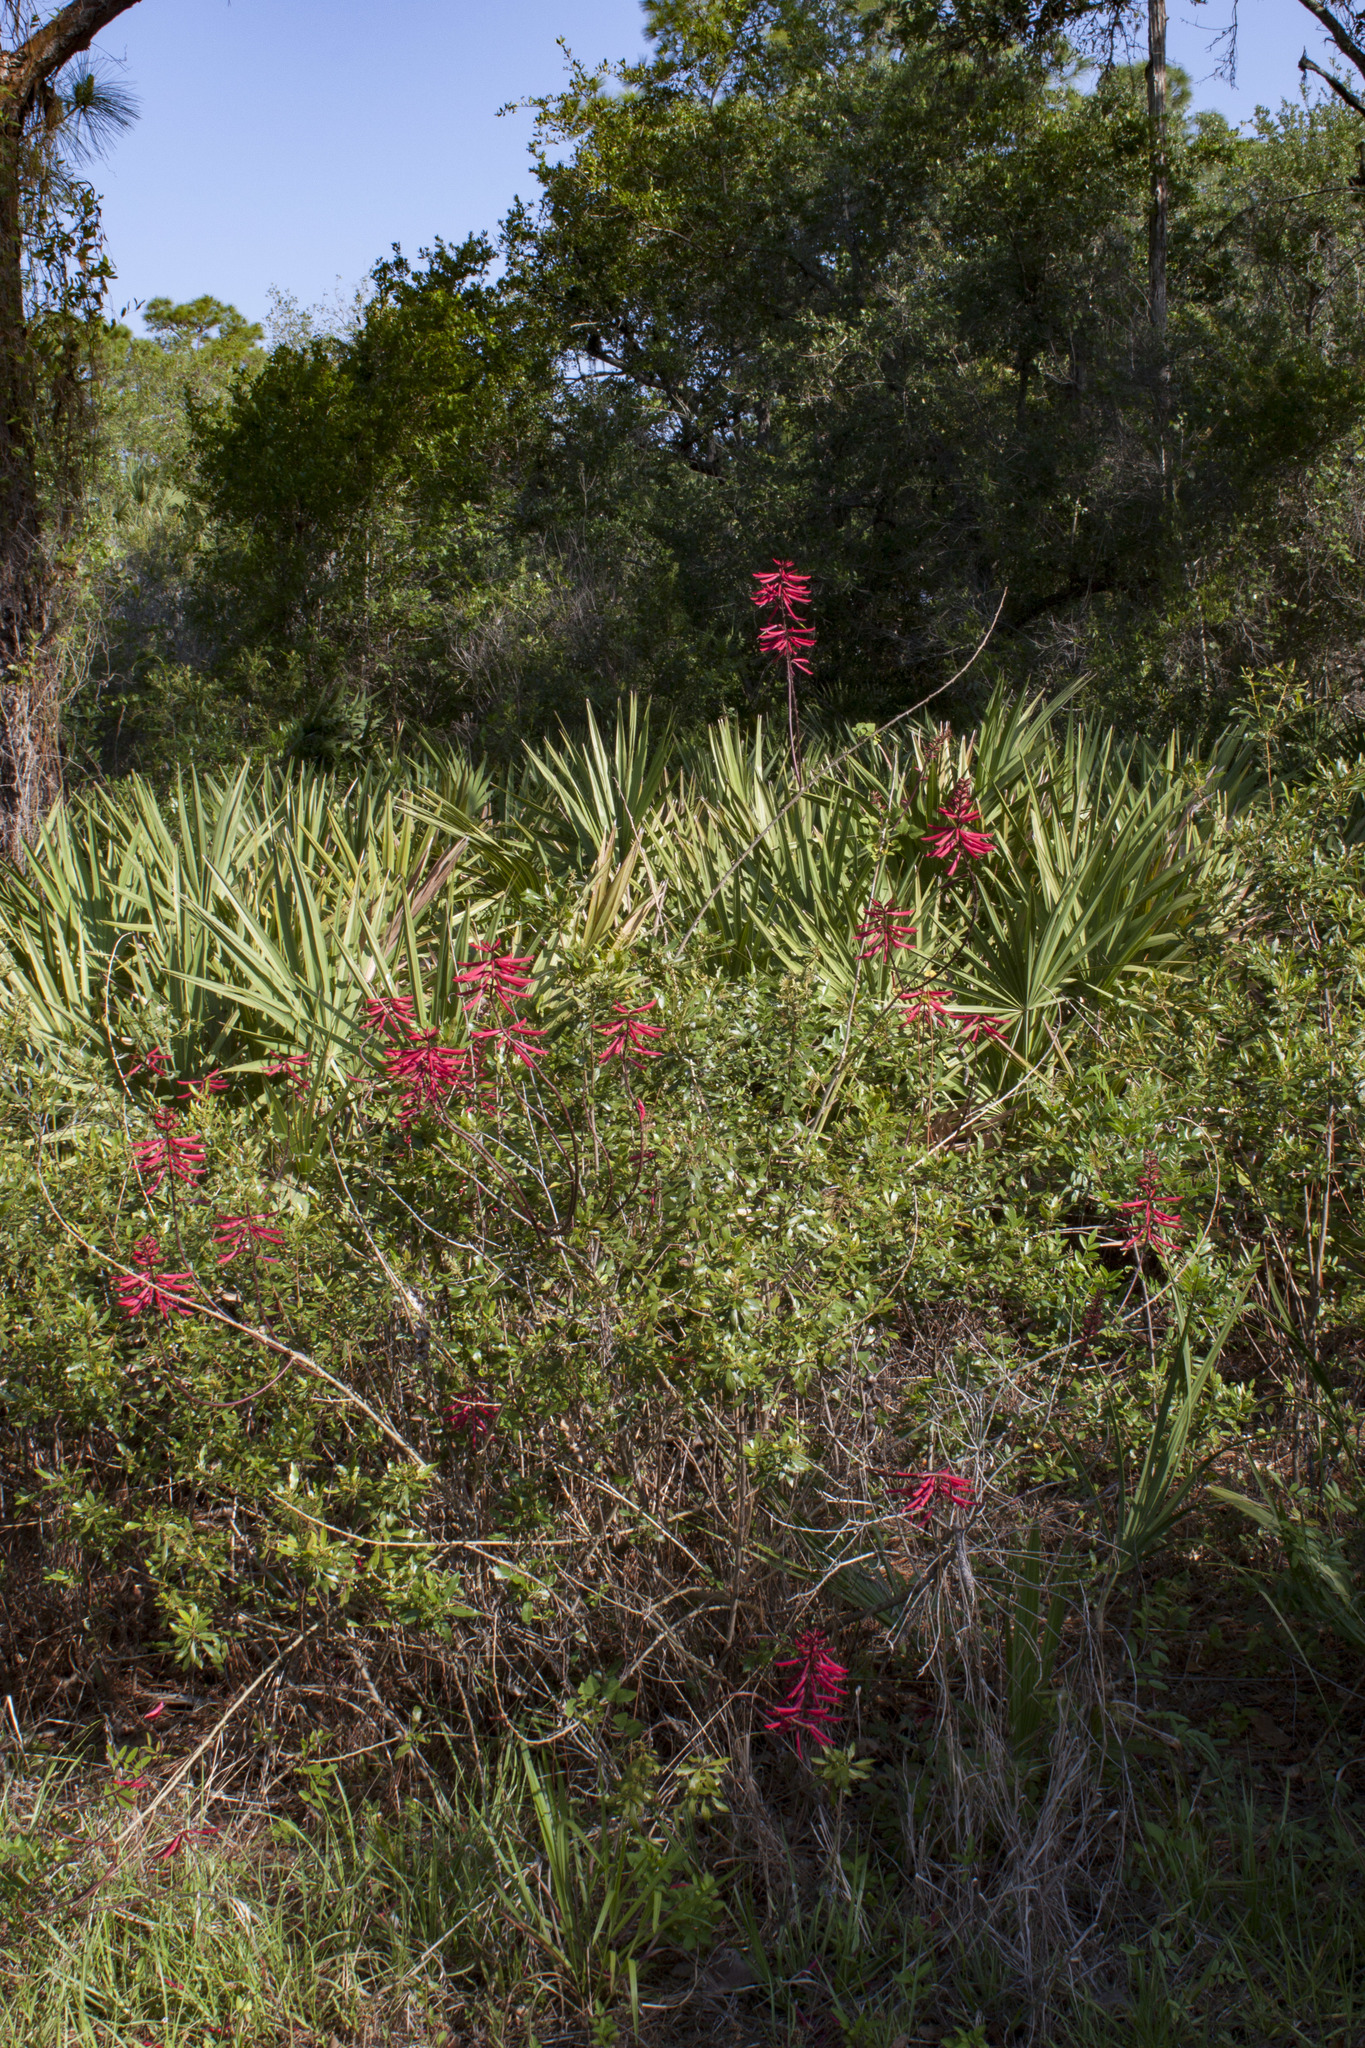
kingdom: Plantae
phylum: Tracheophyta
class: Magnoliopsida
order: Fabales
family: Fabaceae
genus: Erythrina
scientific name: Erythrina herbacea
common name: Coral-bean
